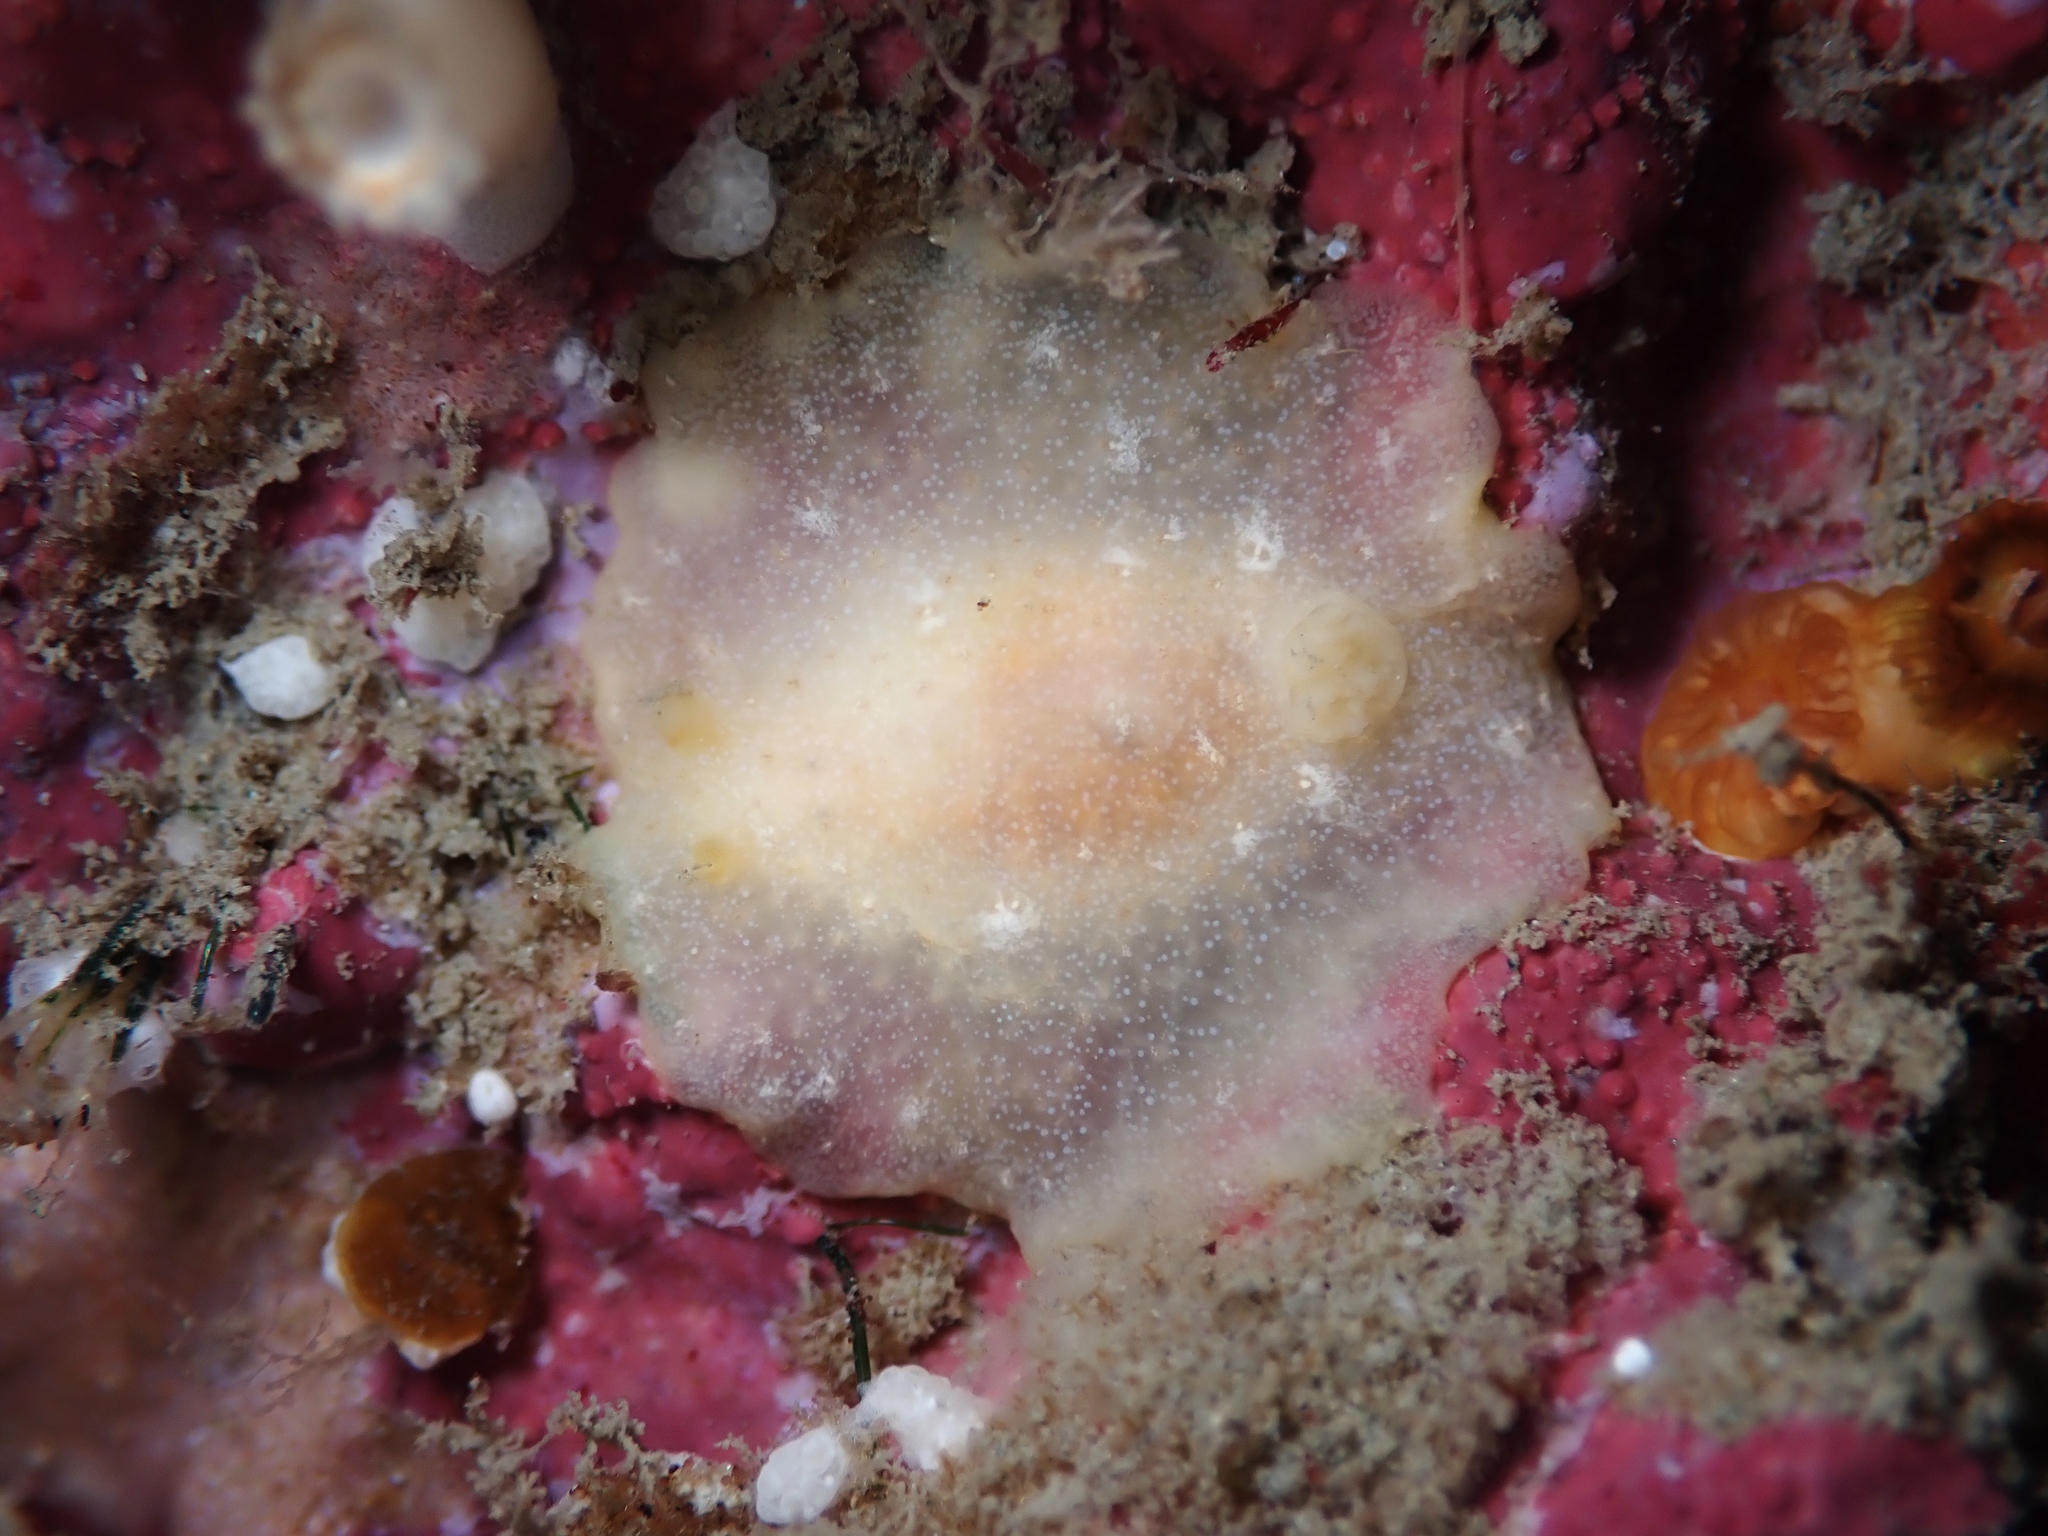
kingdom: Animalia
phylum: Mollusca
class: Gastropoda
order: Nudibranchia
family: Dendrodorididae
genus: Dendrodoris
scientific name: Dendrodoris citrina
